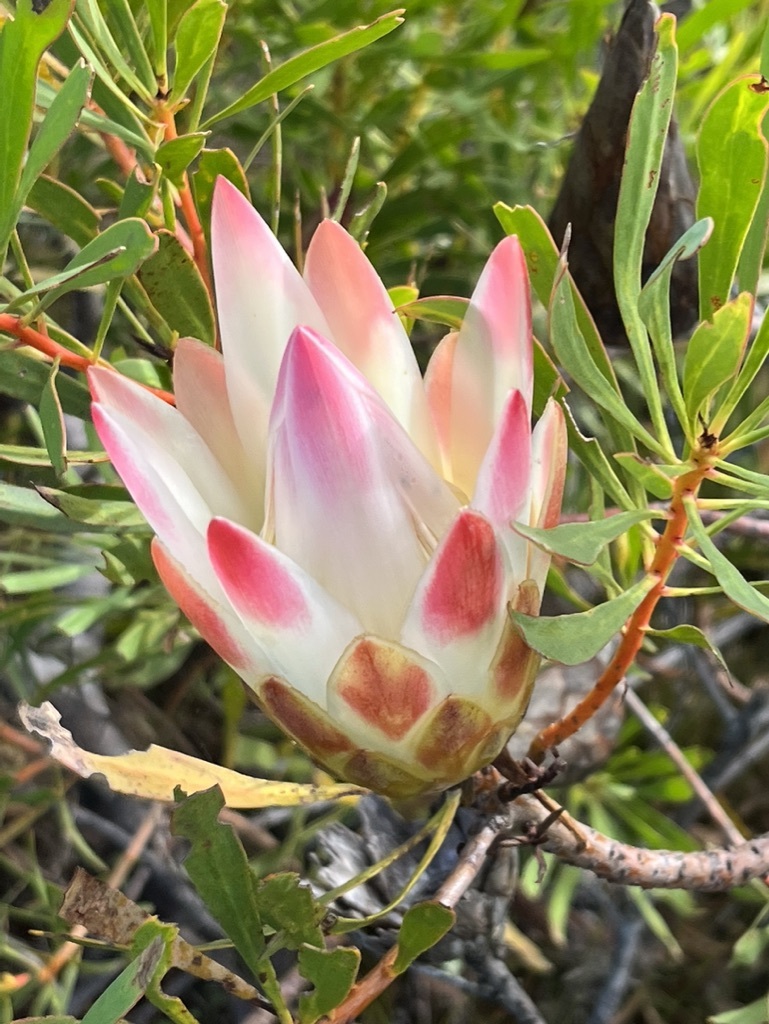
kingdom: Plantae
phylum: Tracheophyta
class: Magnoliopsida
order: Proteales
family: Proteaceae
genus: Protea
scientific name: Protea repens
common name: Sugarbush
